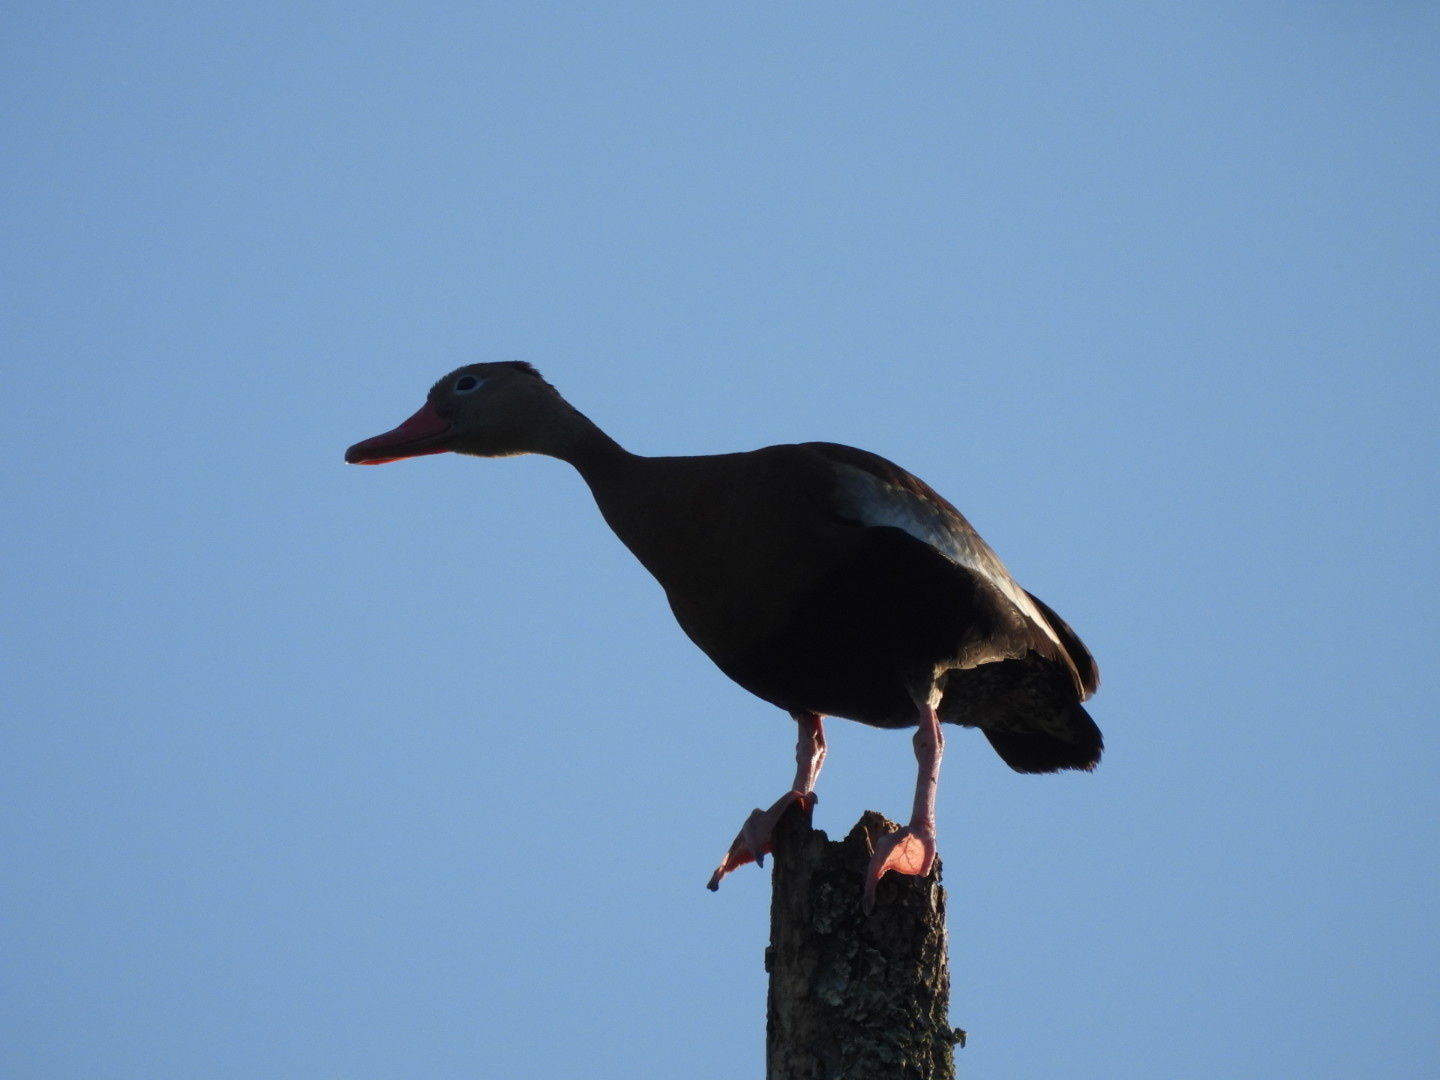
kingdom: Animalia
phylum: Chordata
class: Aves
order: Anseriformes
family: Anatidae
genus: Dendrocygna
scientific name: Dendrocygna autumnalis
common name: Black-bellied whistling duck
